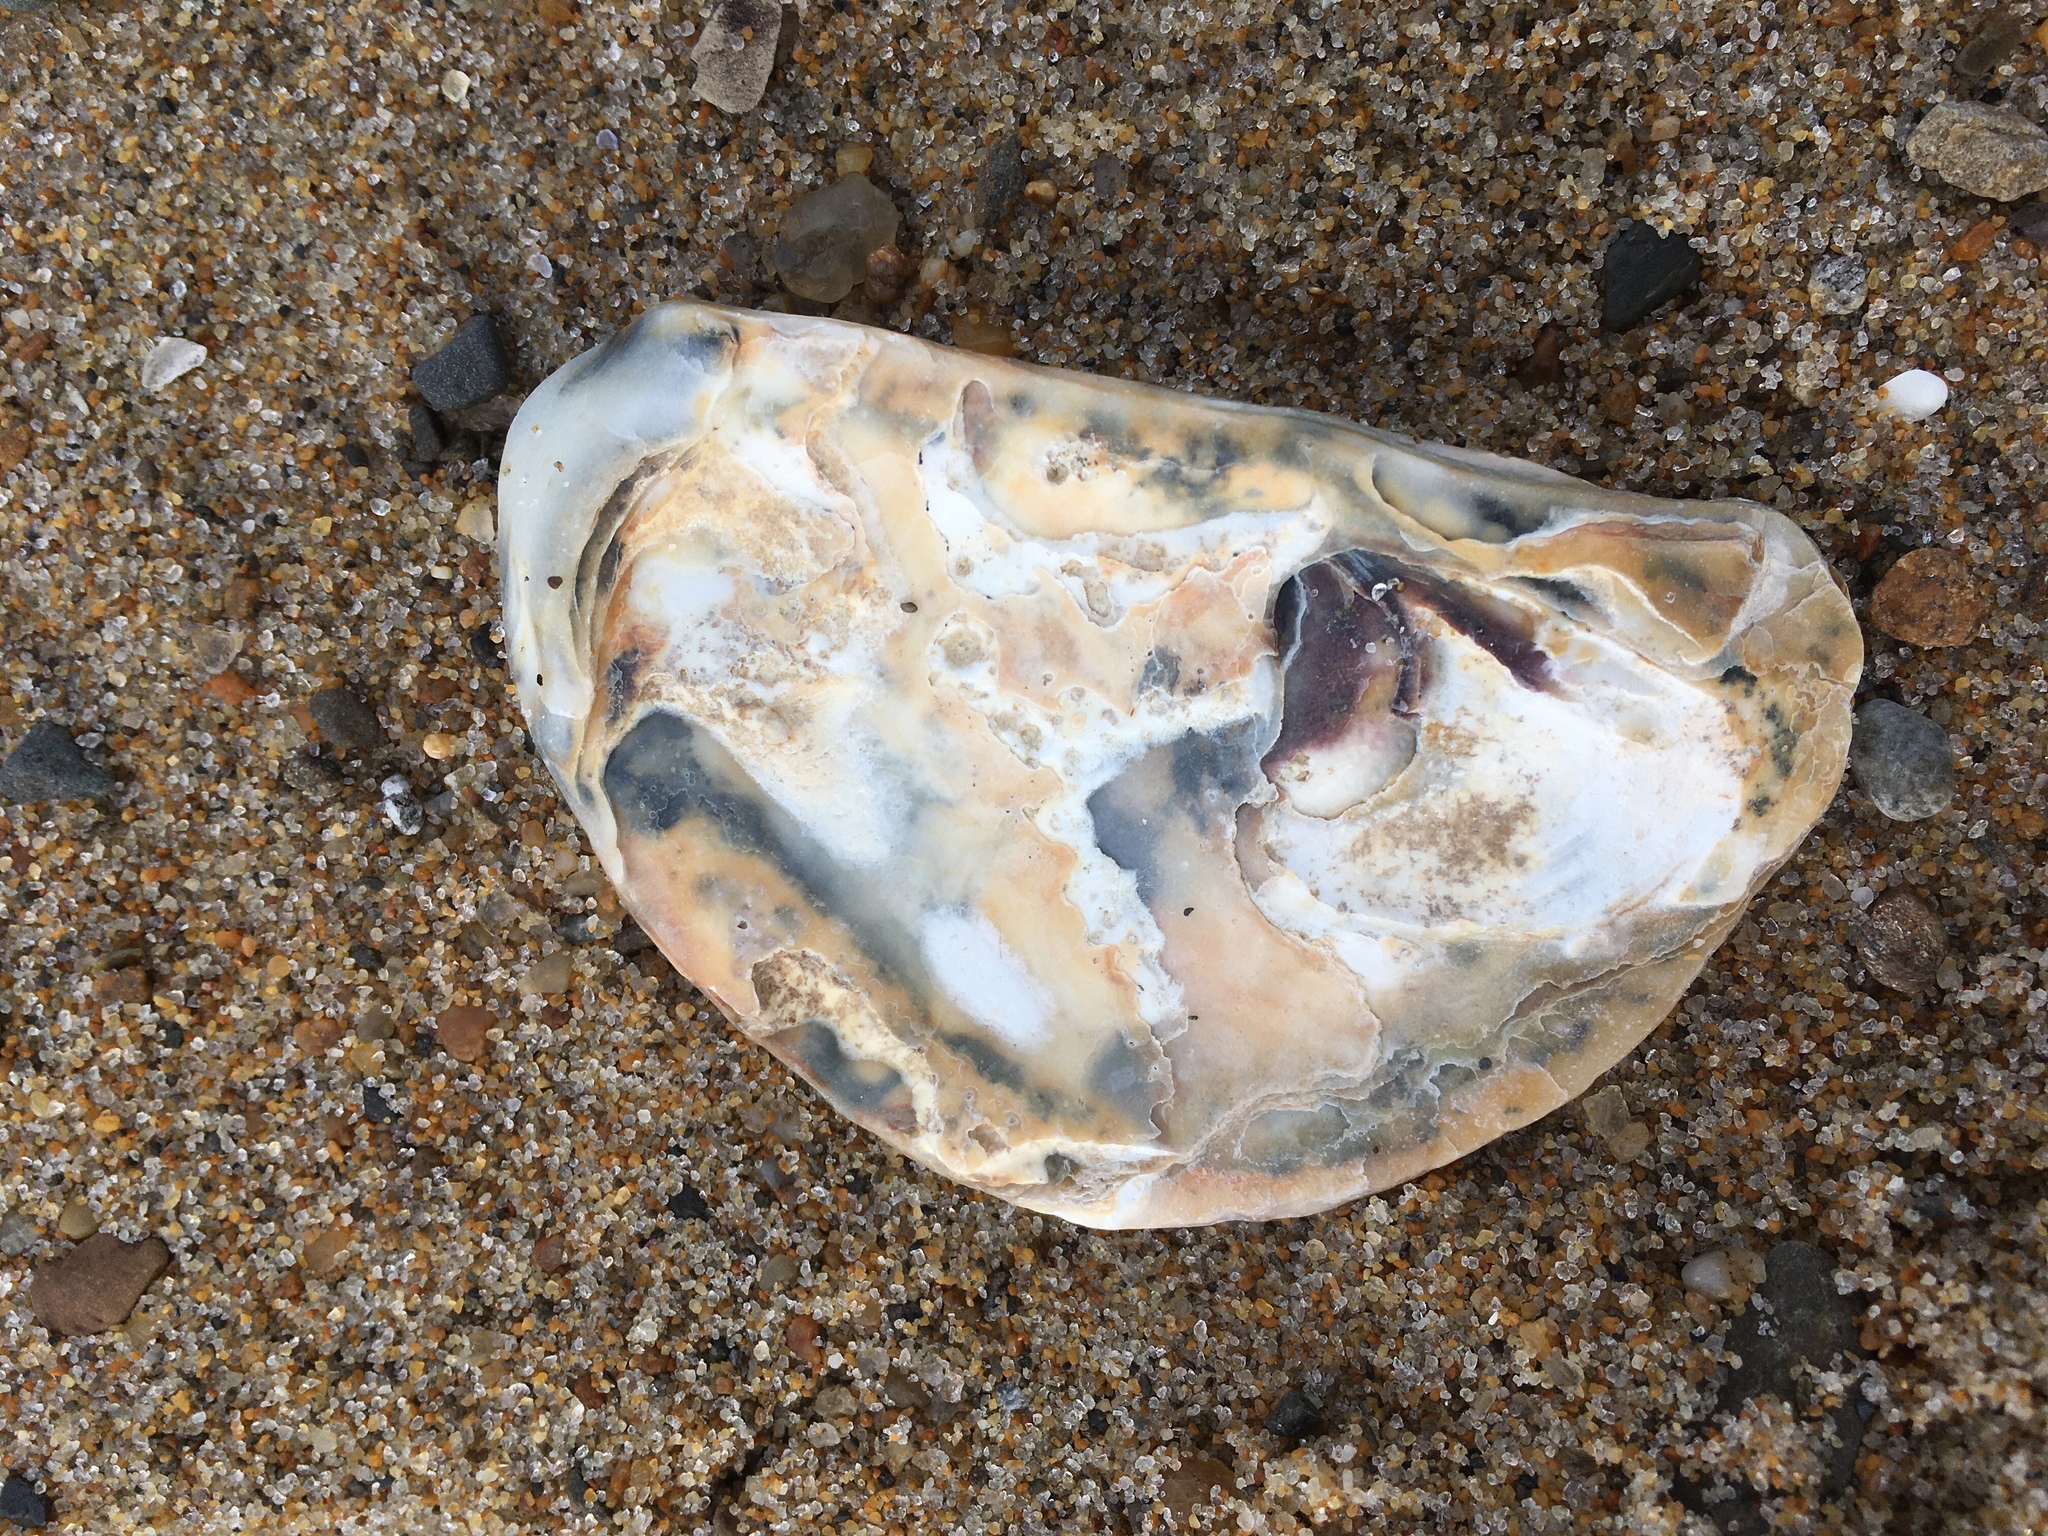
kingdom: Animalia
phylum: Mollusca
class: Bivalvia
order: Ostreida
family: Ostreidae
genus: Crassostrea
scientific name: Crassostrea virginica
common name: American oyster
